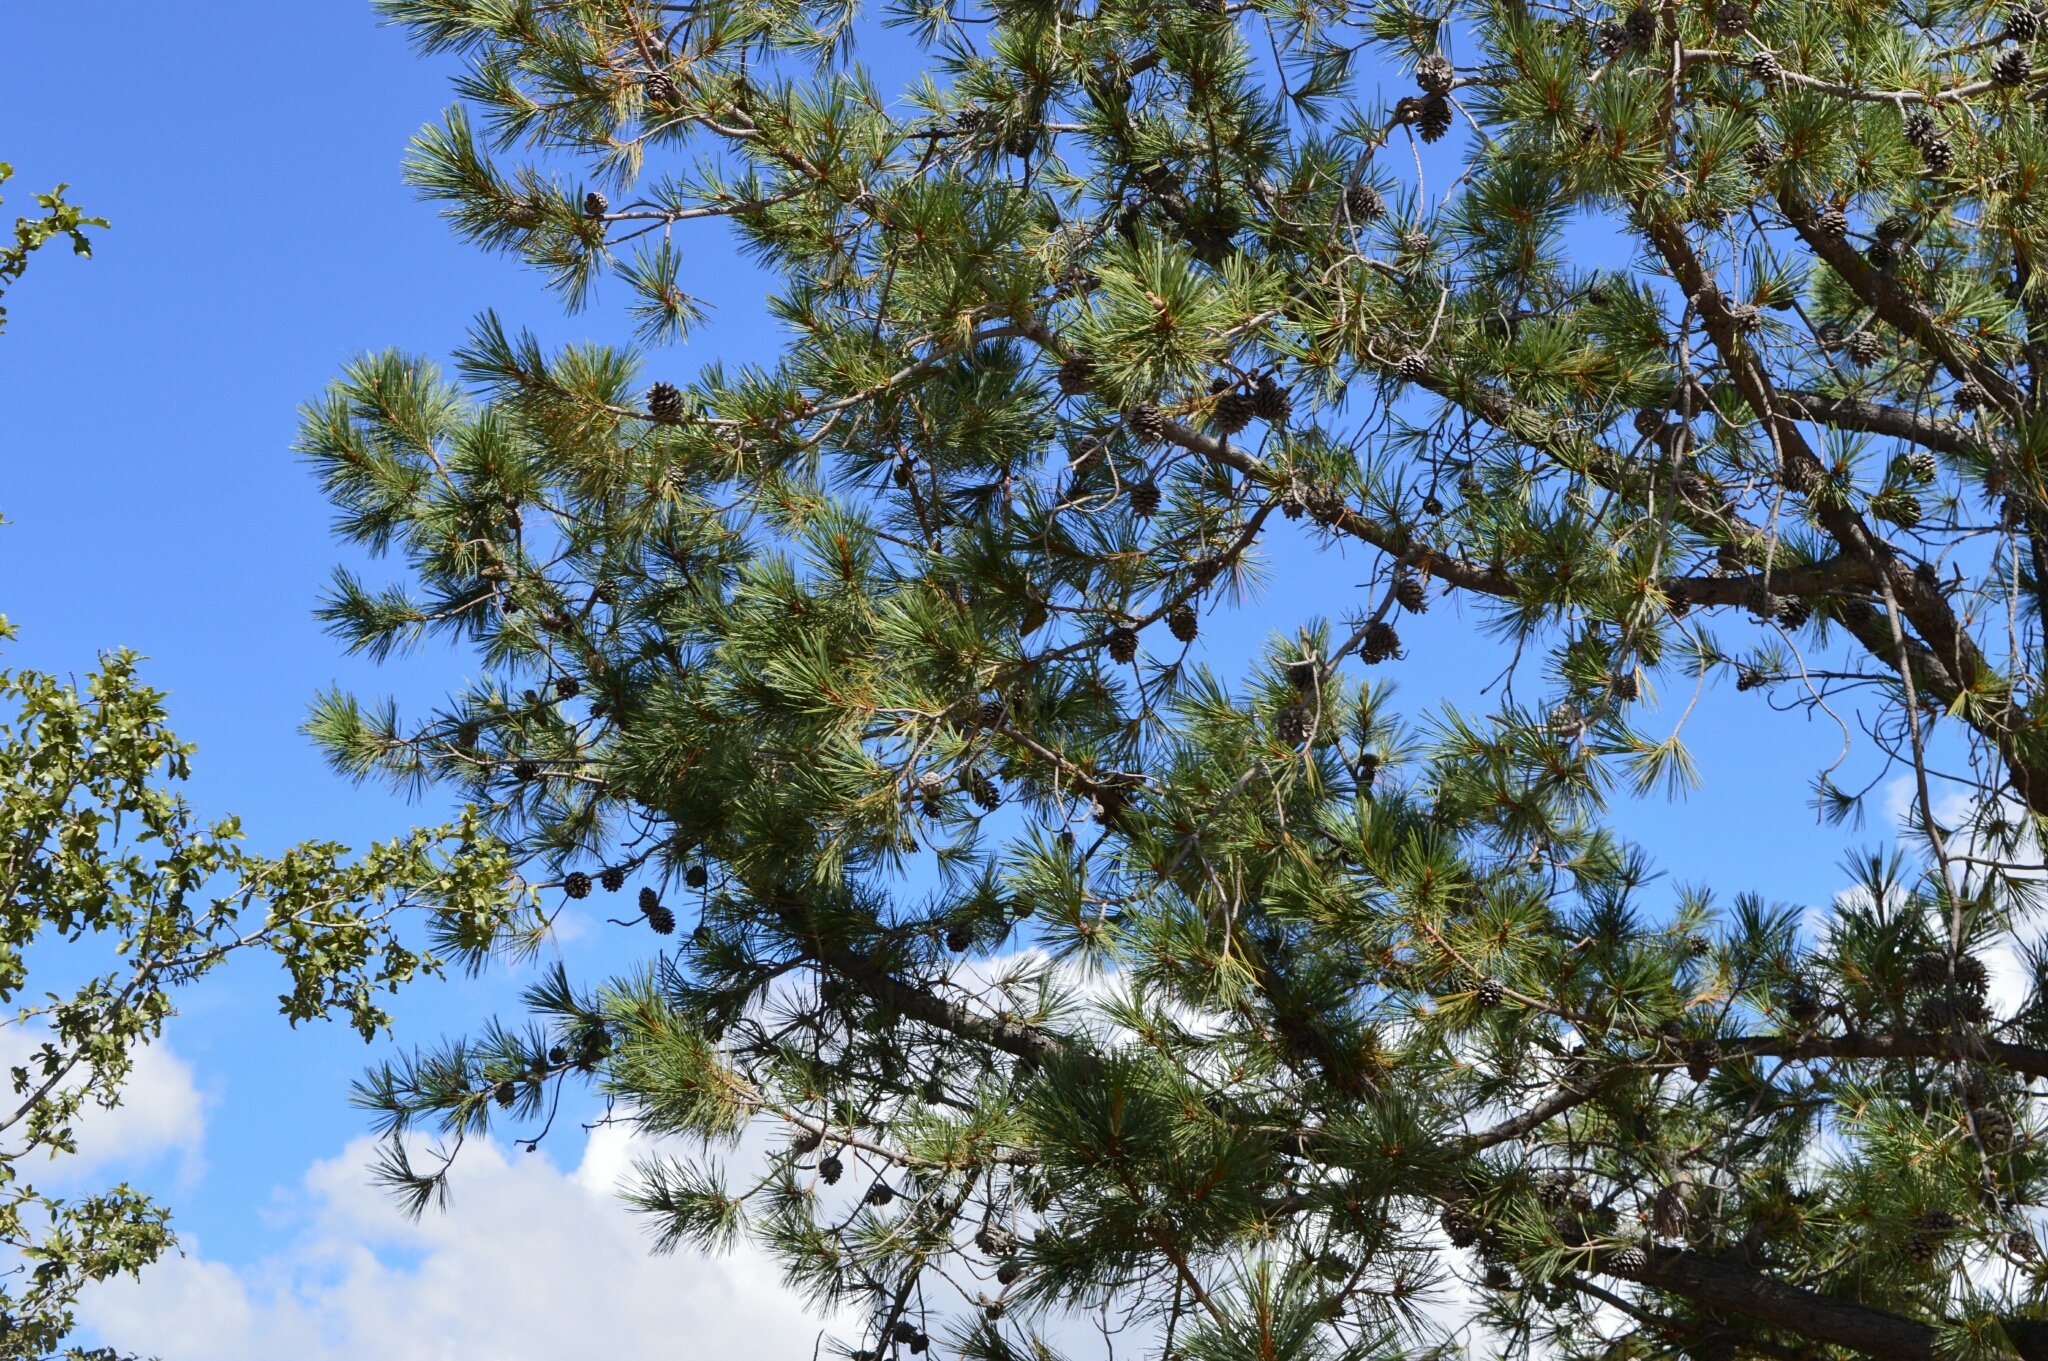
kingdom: Plantae
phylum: Tracheophyta
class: Pinopsida
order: Pinales
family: Pinaceae
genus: Pinus
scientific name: Pinus leiophylla
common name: Chihuahua pine
